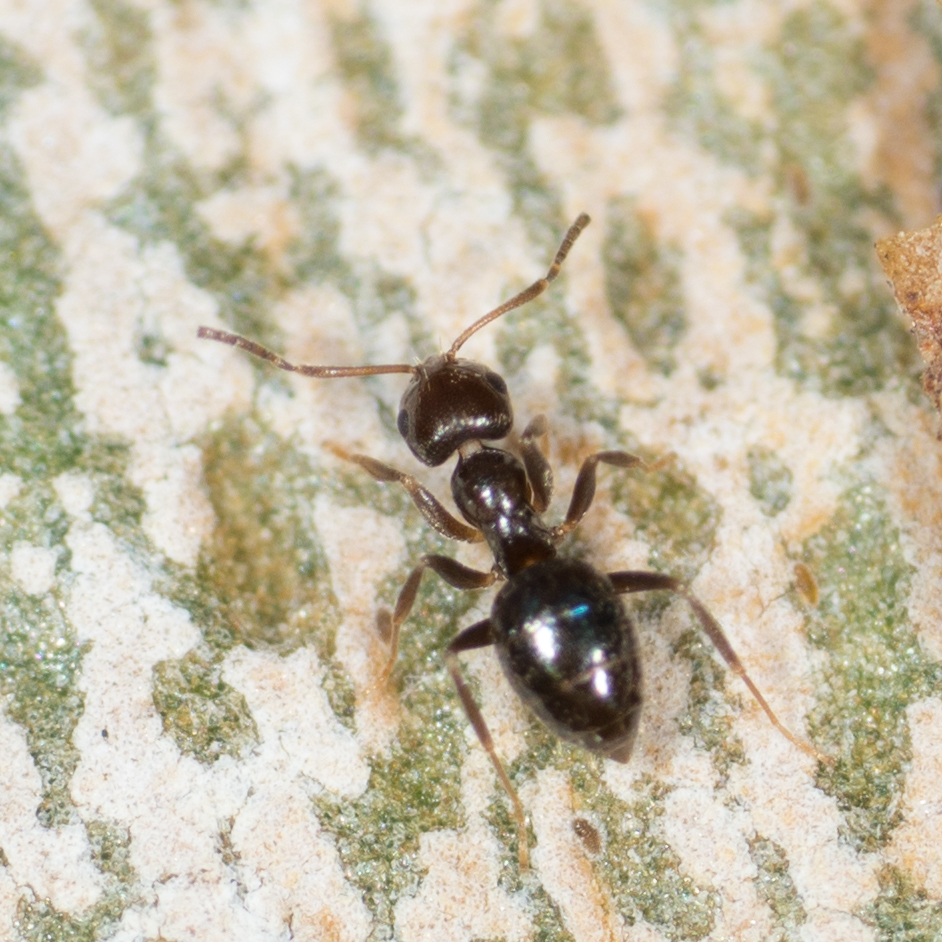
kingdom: Animalia
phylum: Arthropoda
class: Insecta
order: Hymenoptera
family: Formicidae
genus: Brachymyrmex
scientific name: Brachymyrmex patagonicus
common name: Dark rover ant
